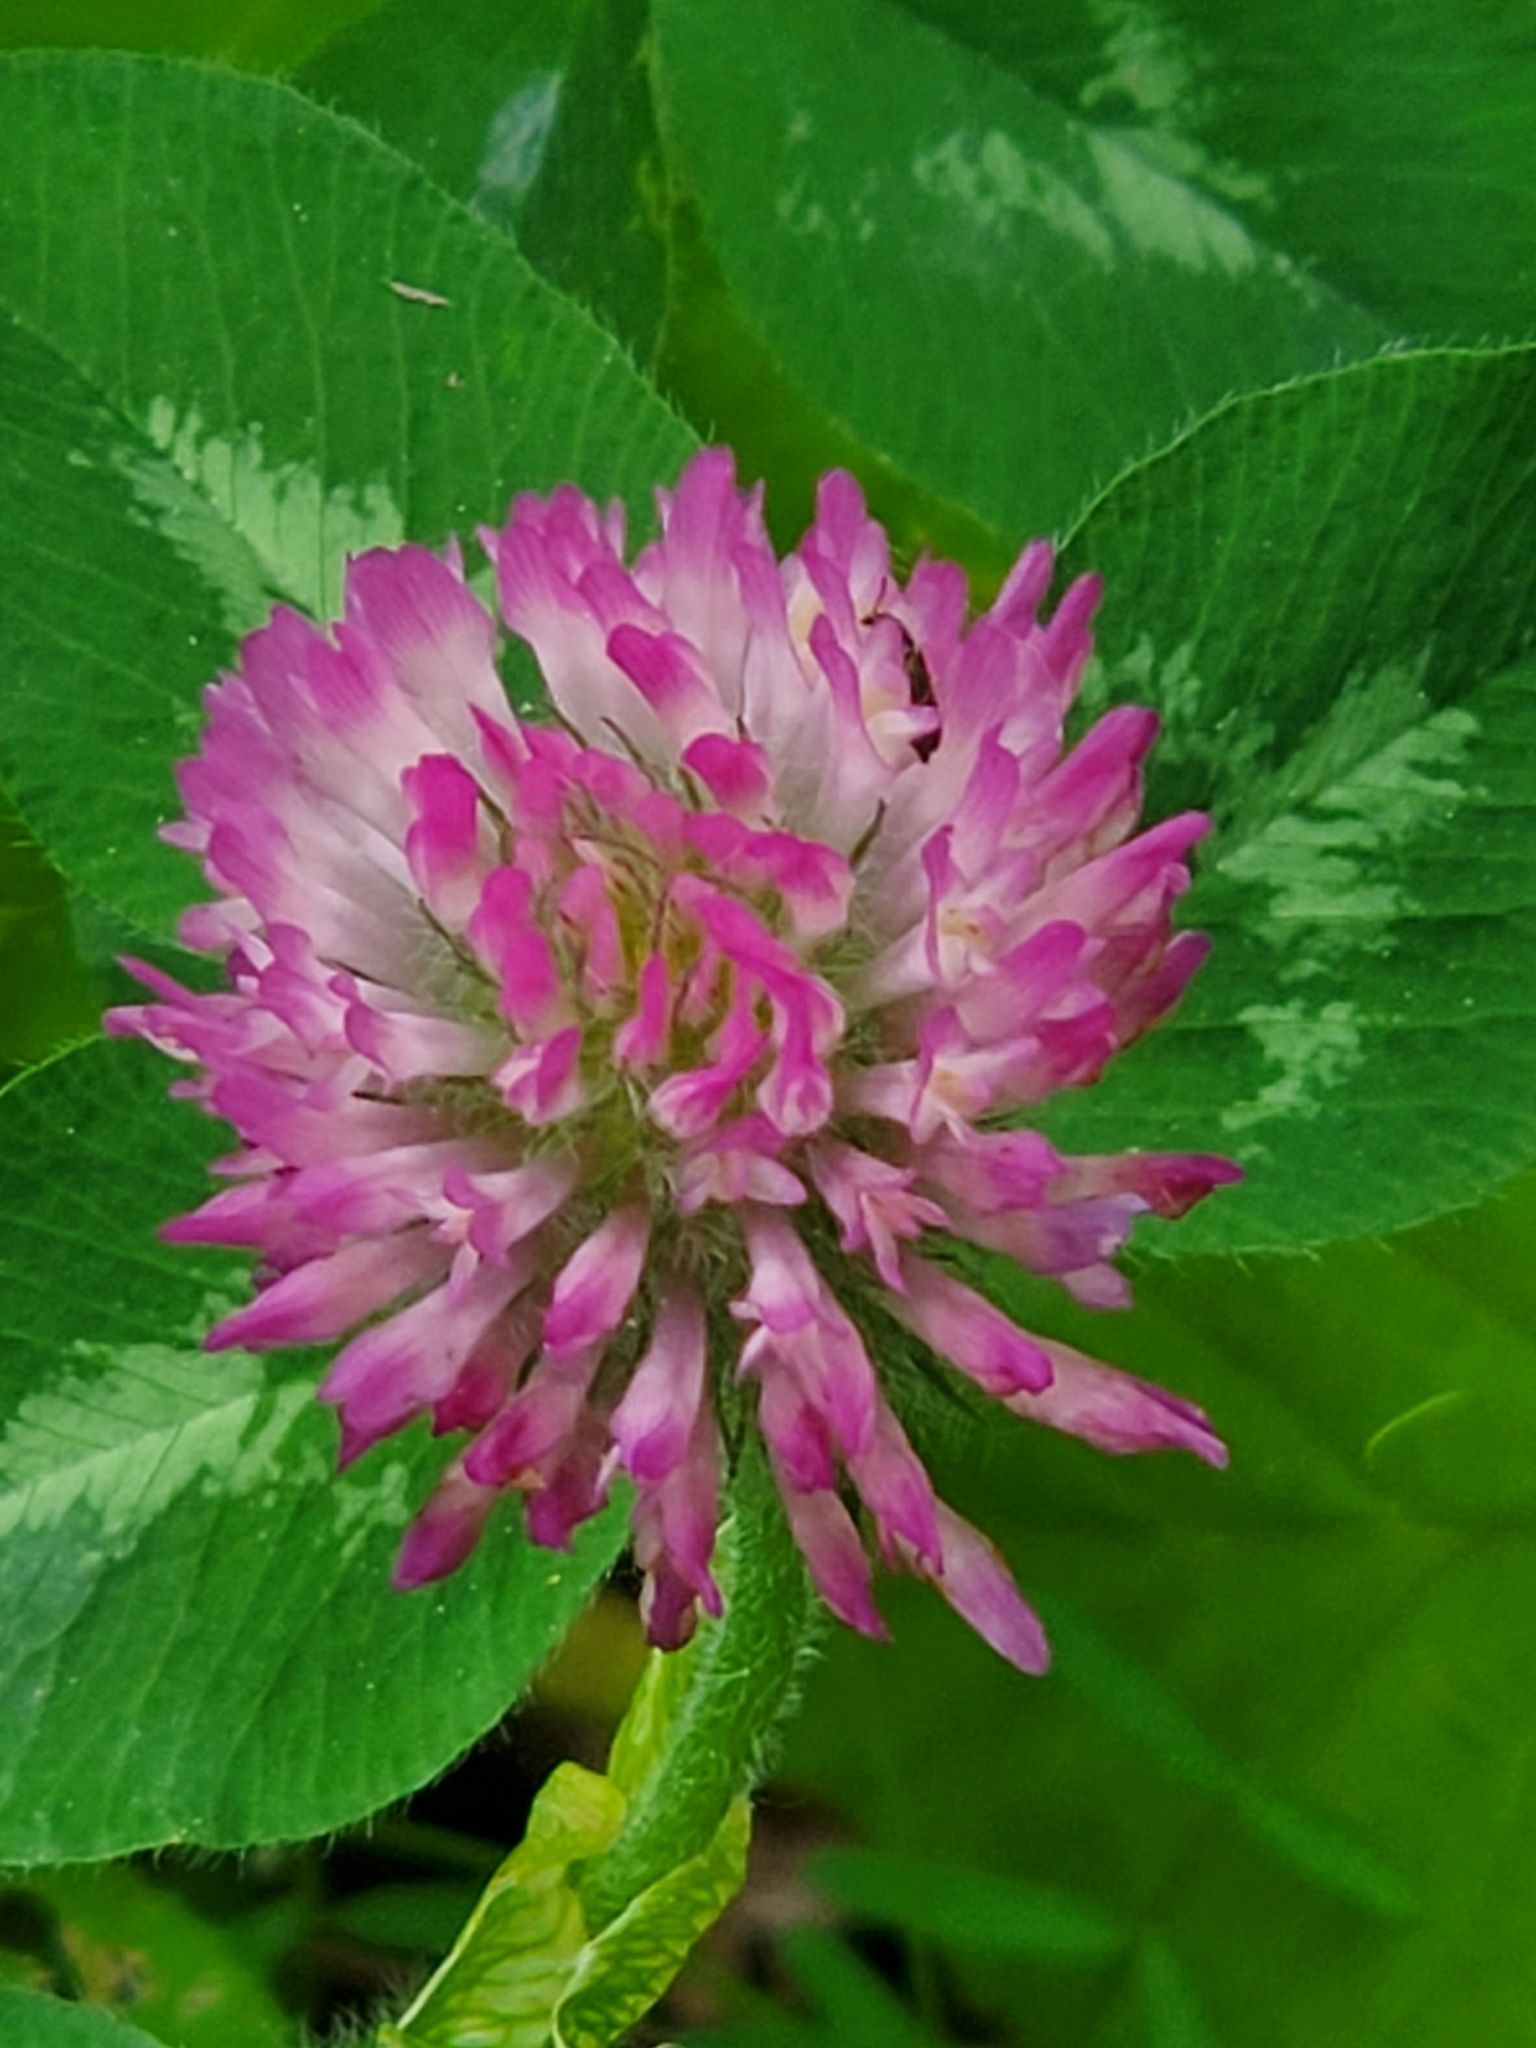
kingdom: Plantae
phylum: Tracheophyta
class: Magnoliopsida
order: Fabales
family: Fabaceae
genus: Trifolium
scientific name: Trifolium pratense
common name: Red clover
